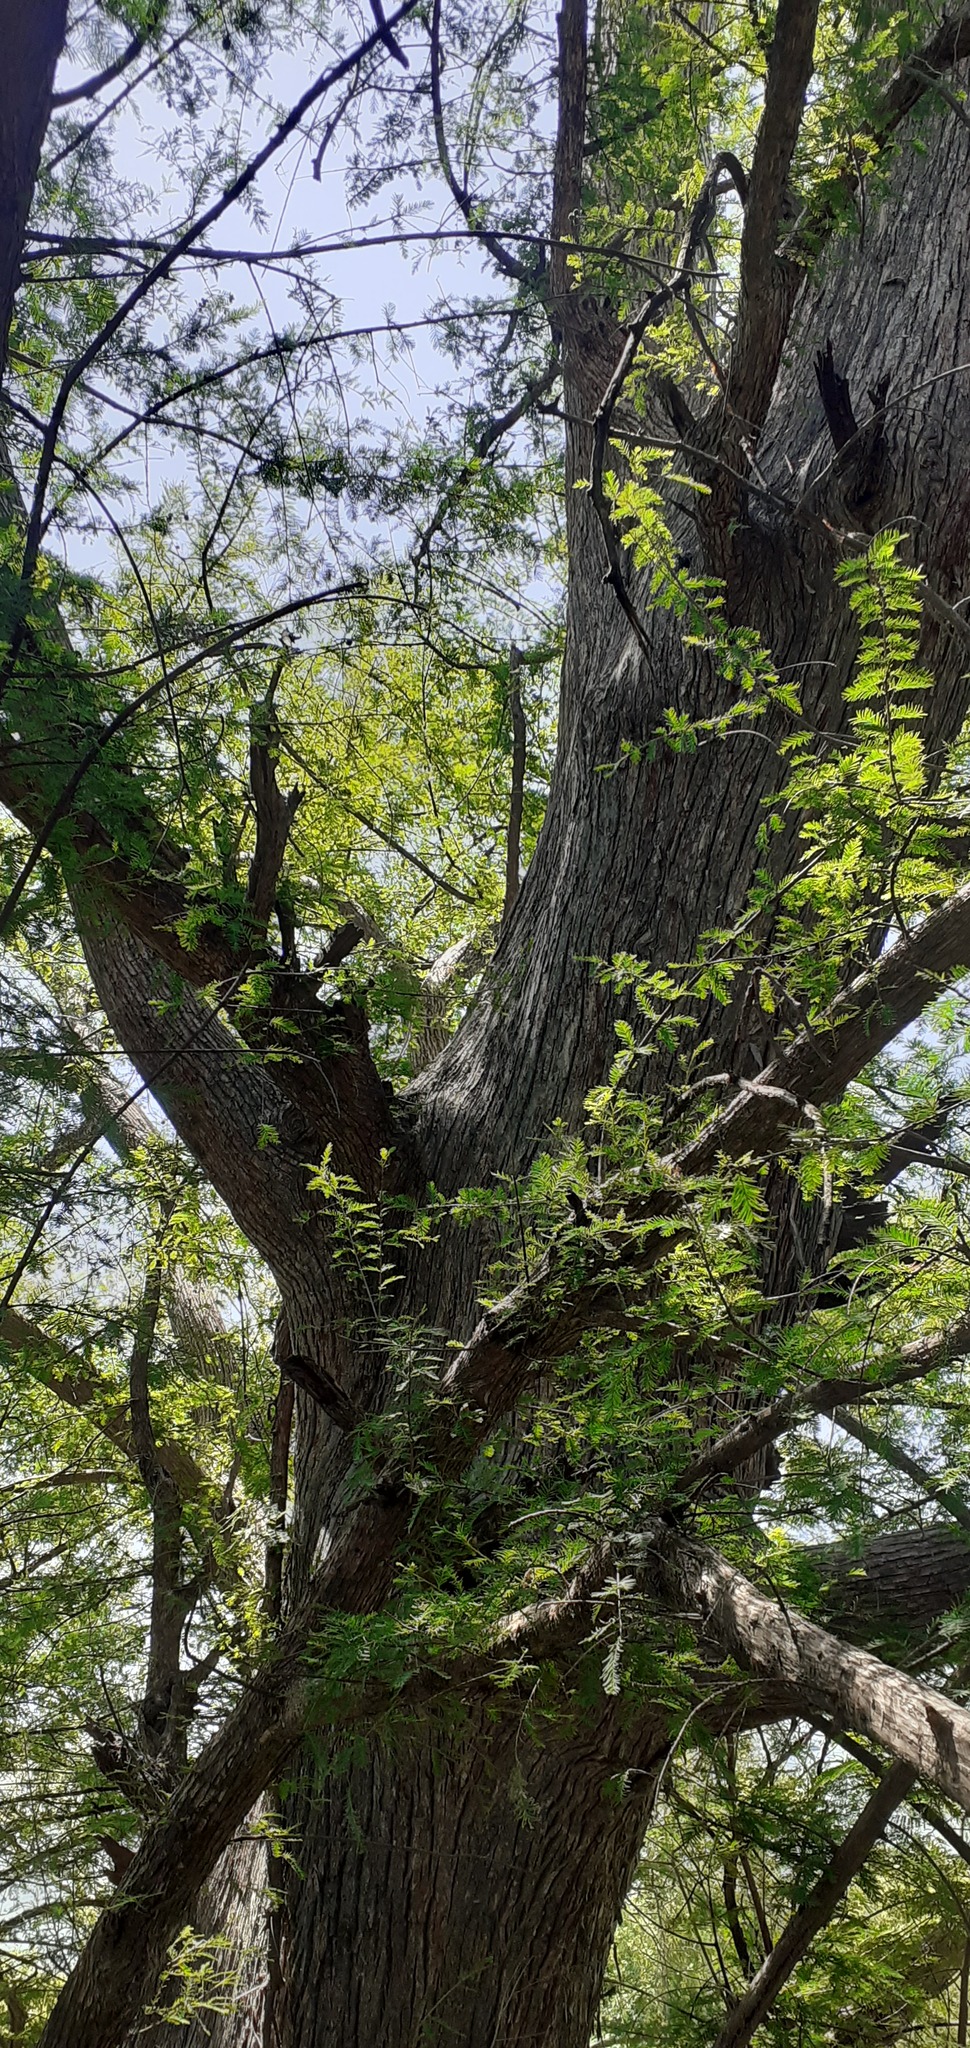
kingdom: Plantae
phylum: Tracheophyta
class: Pinopsida
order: Pinales
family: Cupressaceae
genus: Taxodium
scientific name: Taxodium mucronatum
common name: Montezume bald cypress
